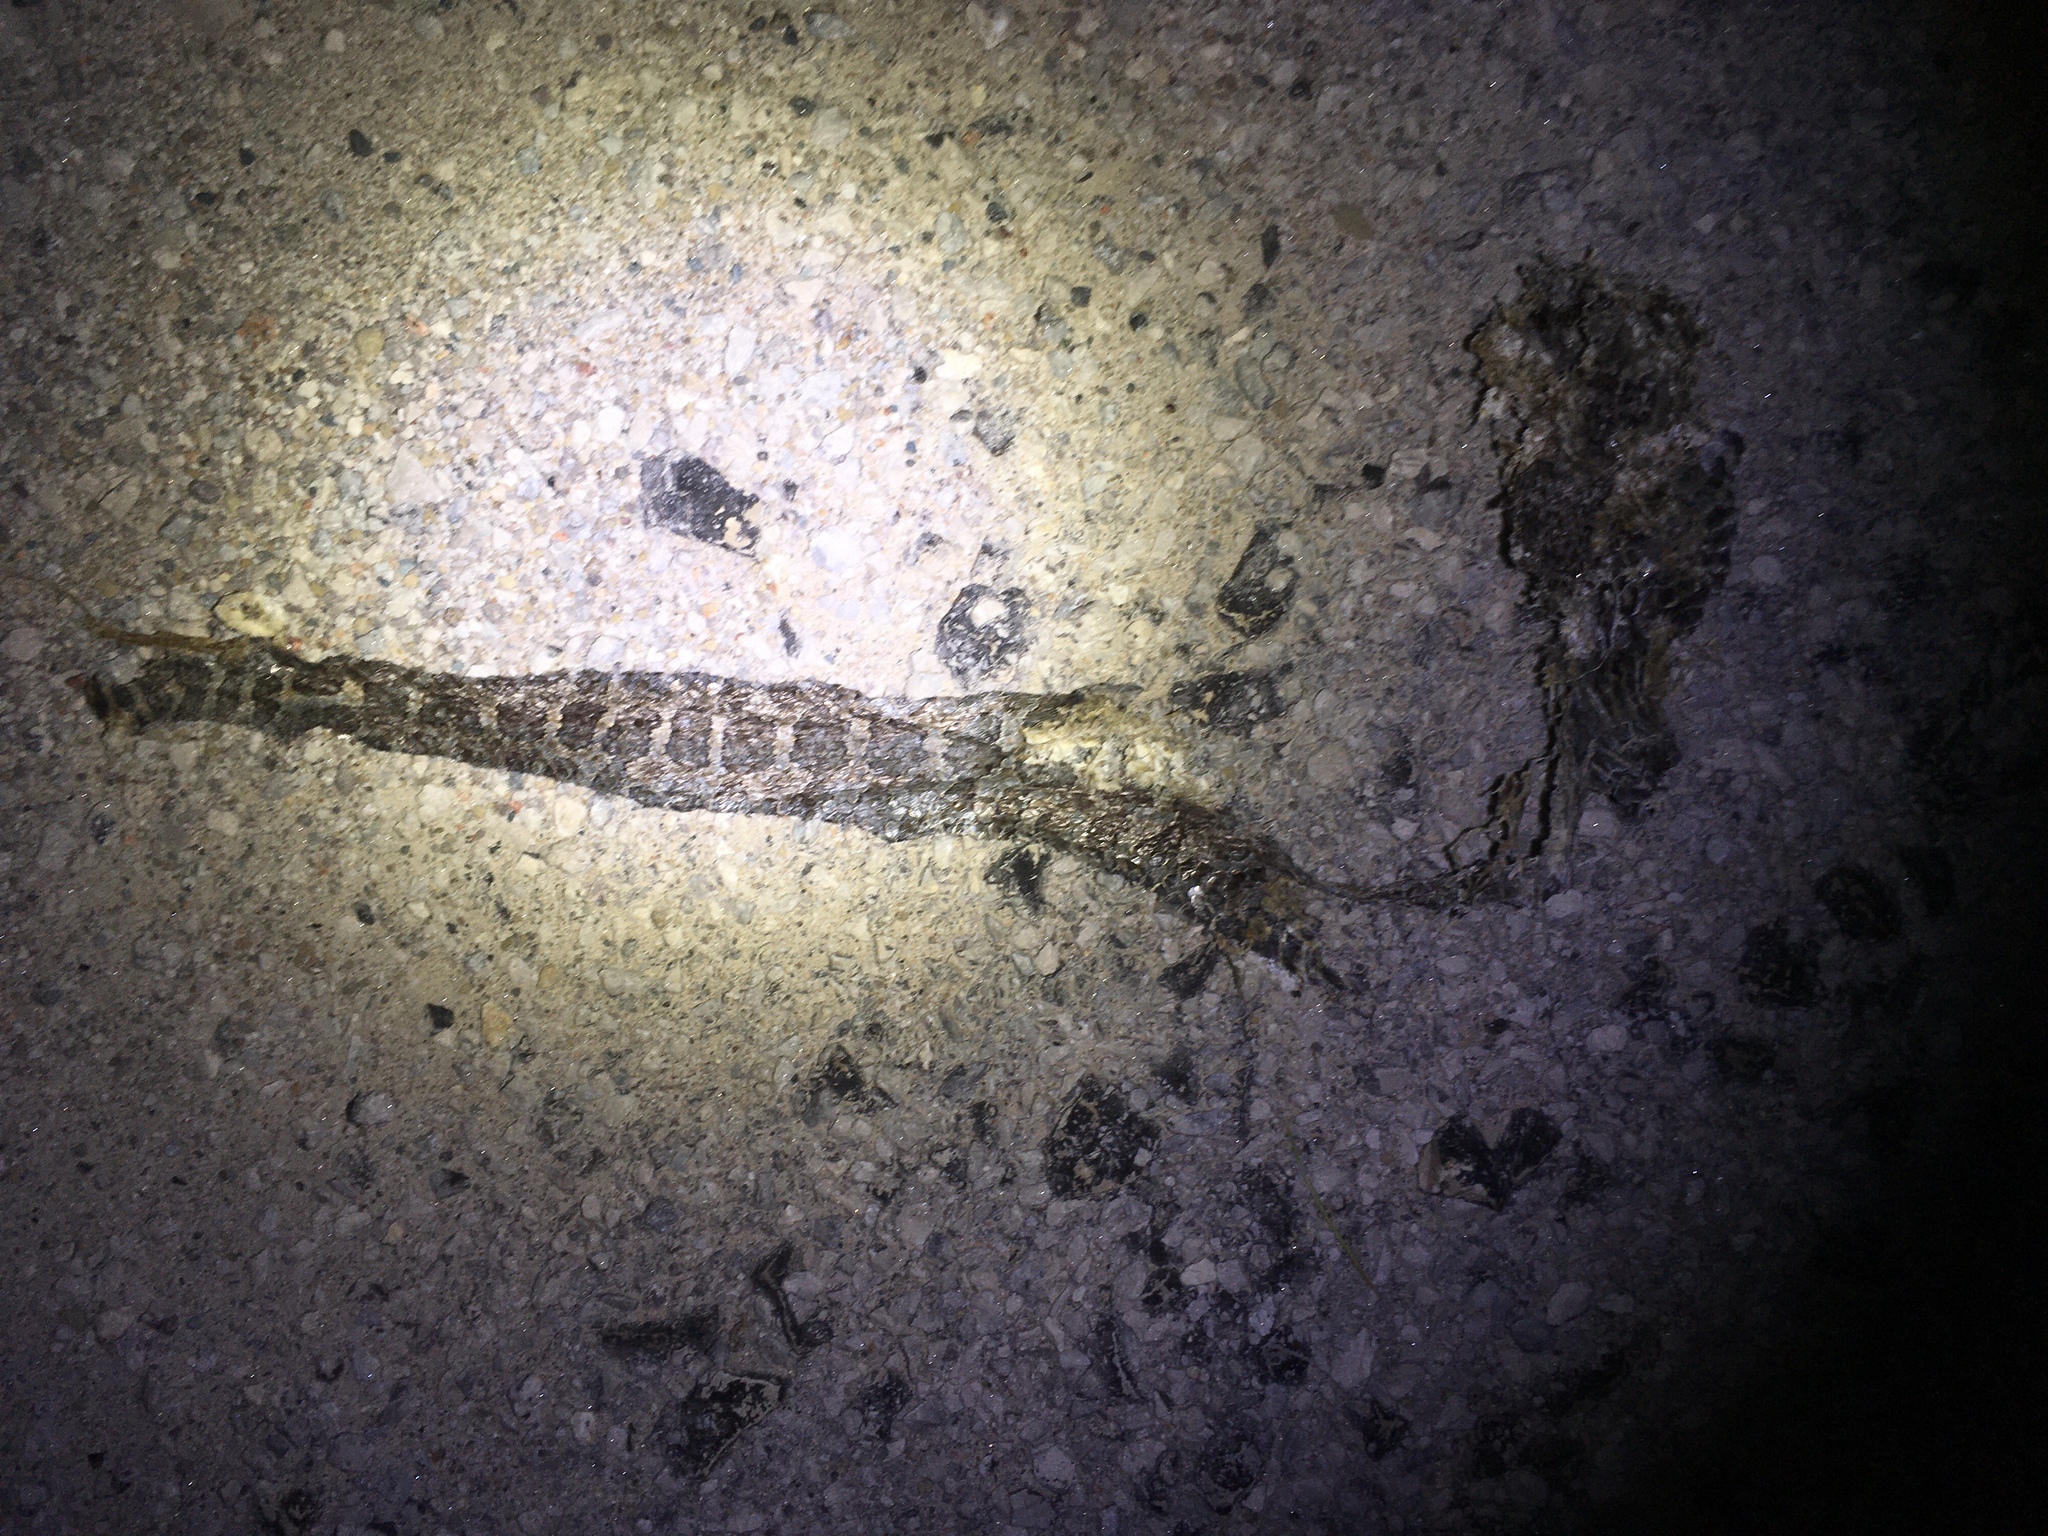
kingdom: Animalia
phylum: Chordata
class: Squamata
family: Viperidae
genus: Sistrurus
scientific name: Sistrurus catenatus
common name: Massasauga
